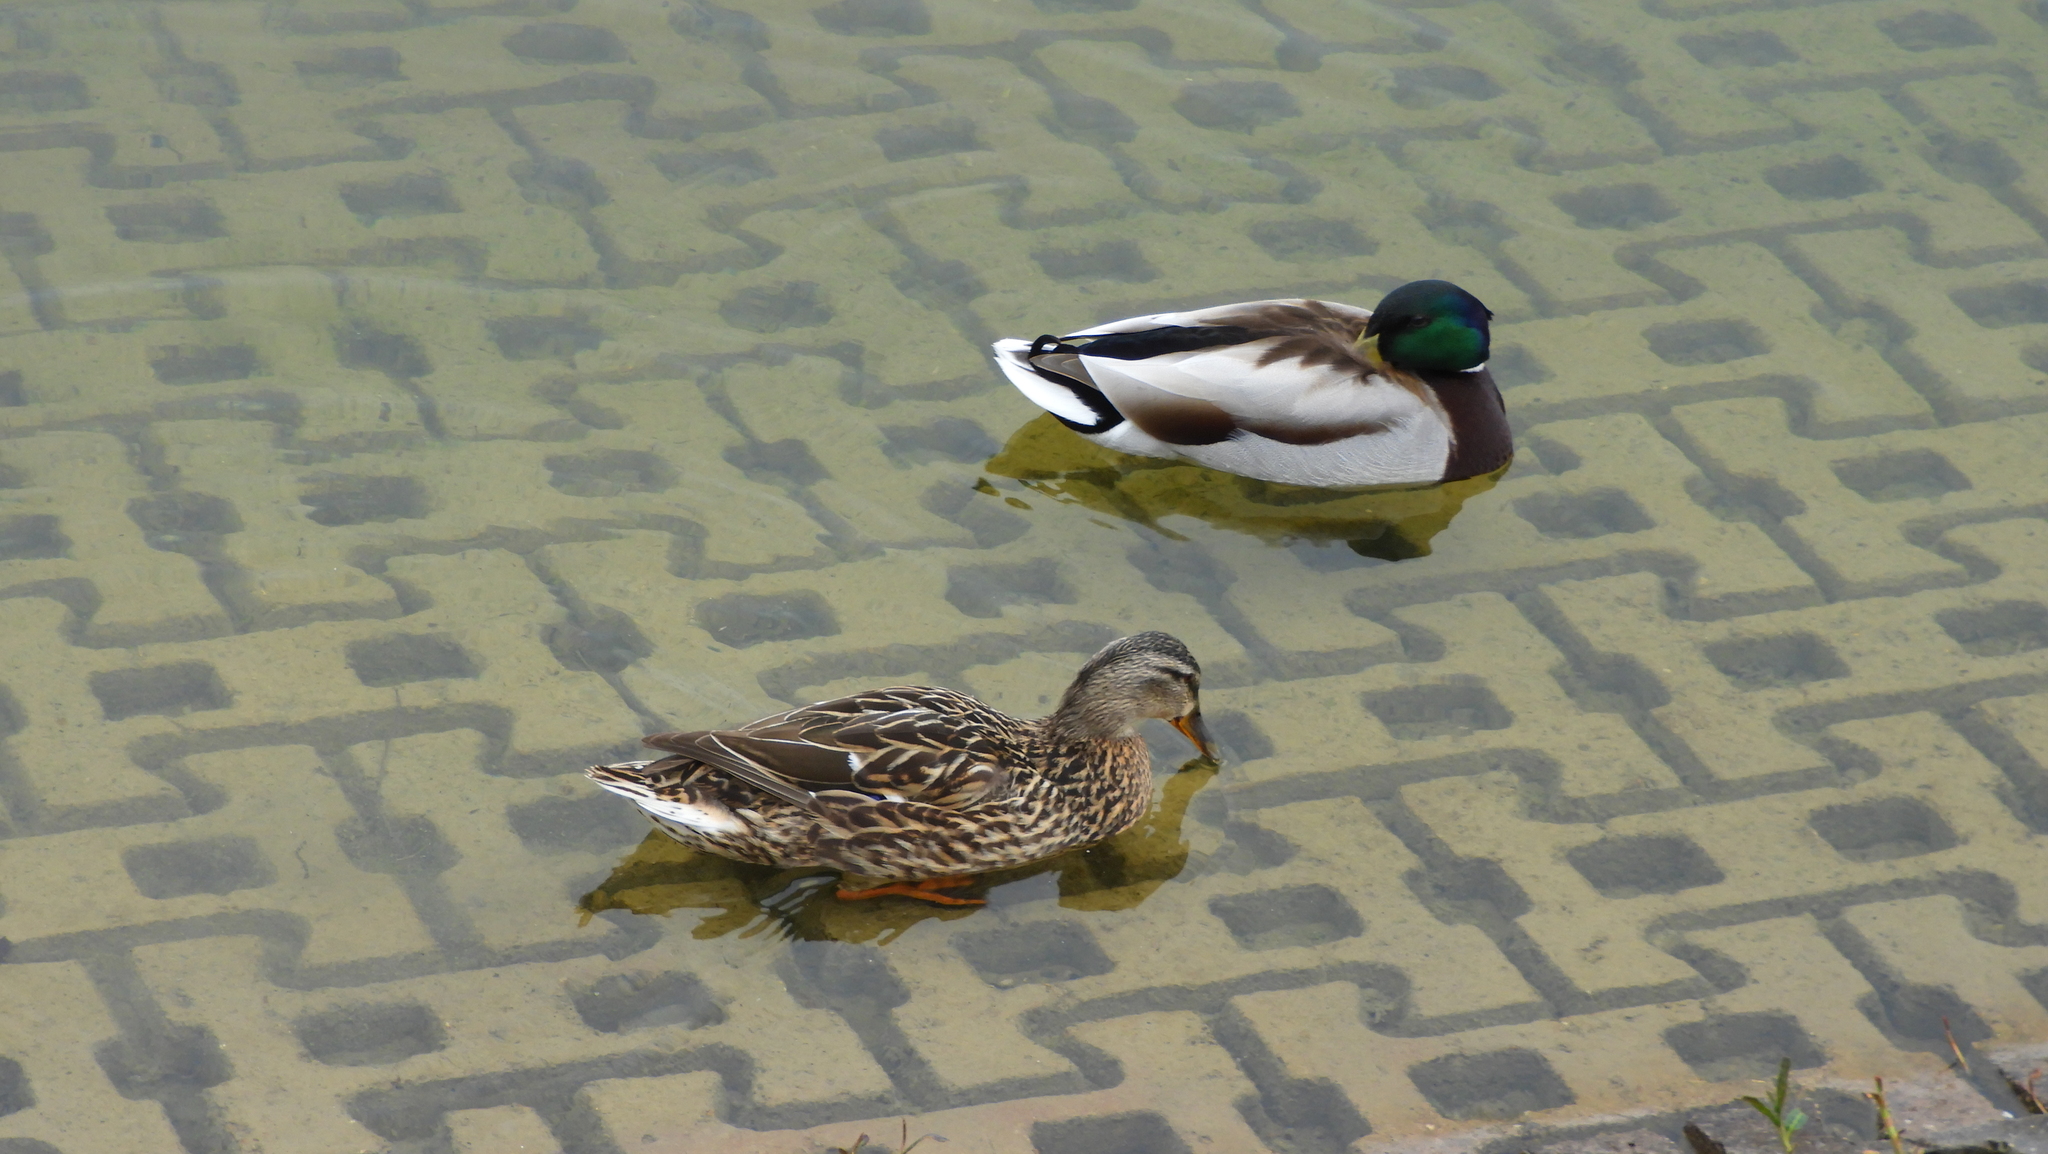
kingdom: Animalia
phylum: Chordata
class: Aves
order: Anseriformes
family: Anatidae
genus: Anas
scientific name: Anas platyrhynchos
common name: Mallard
